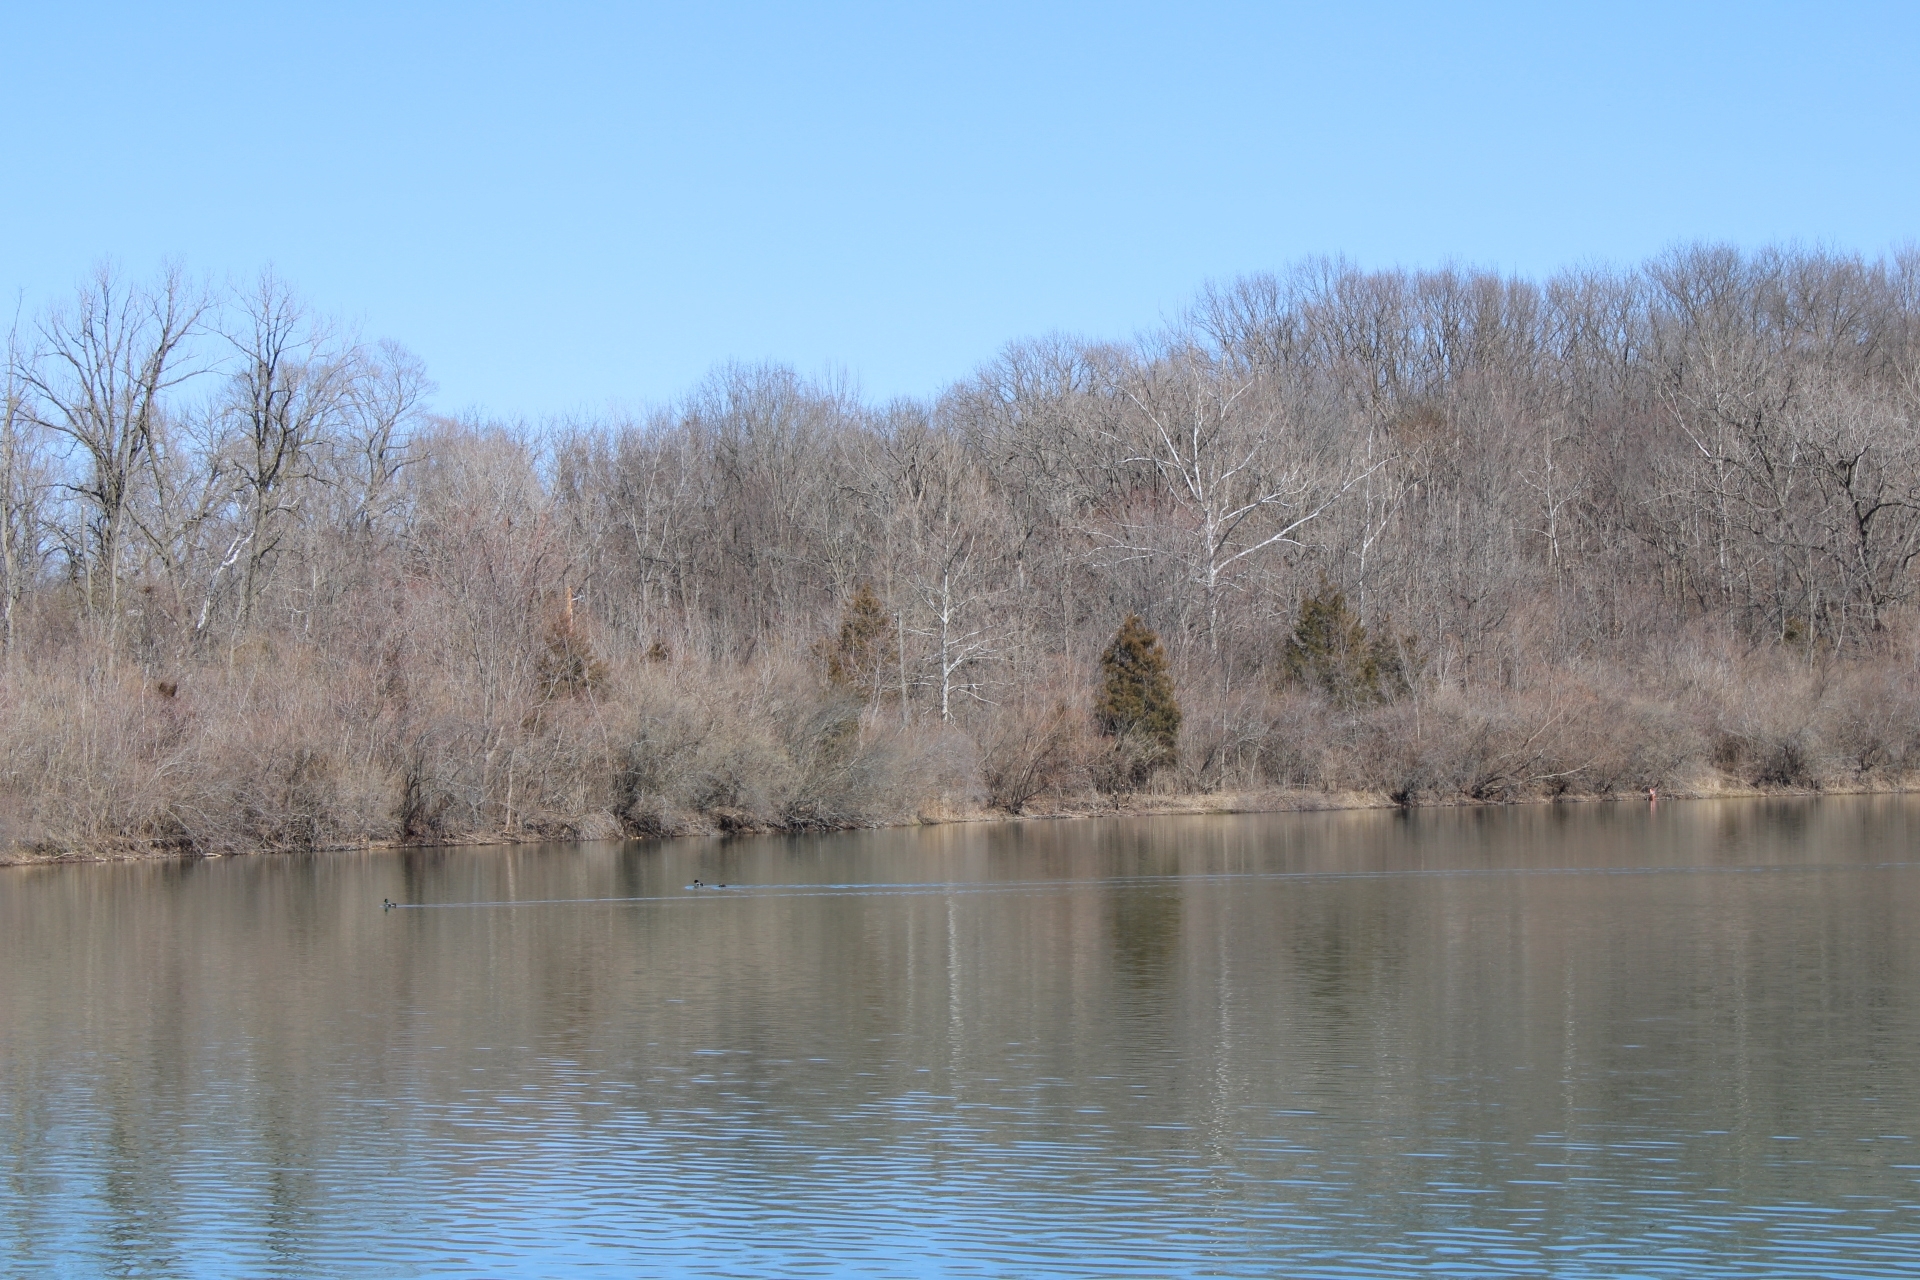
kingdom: Animalia
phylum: Chordata
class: Aves
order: Anseriformes
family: Anatidae
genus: Anas
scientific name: Anas platyrhynchos
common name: Mallard
